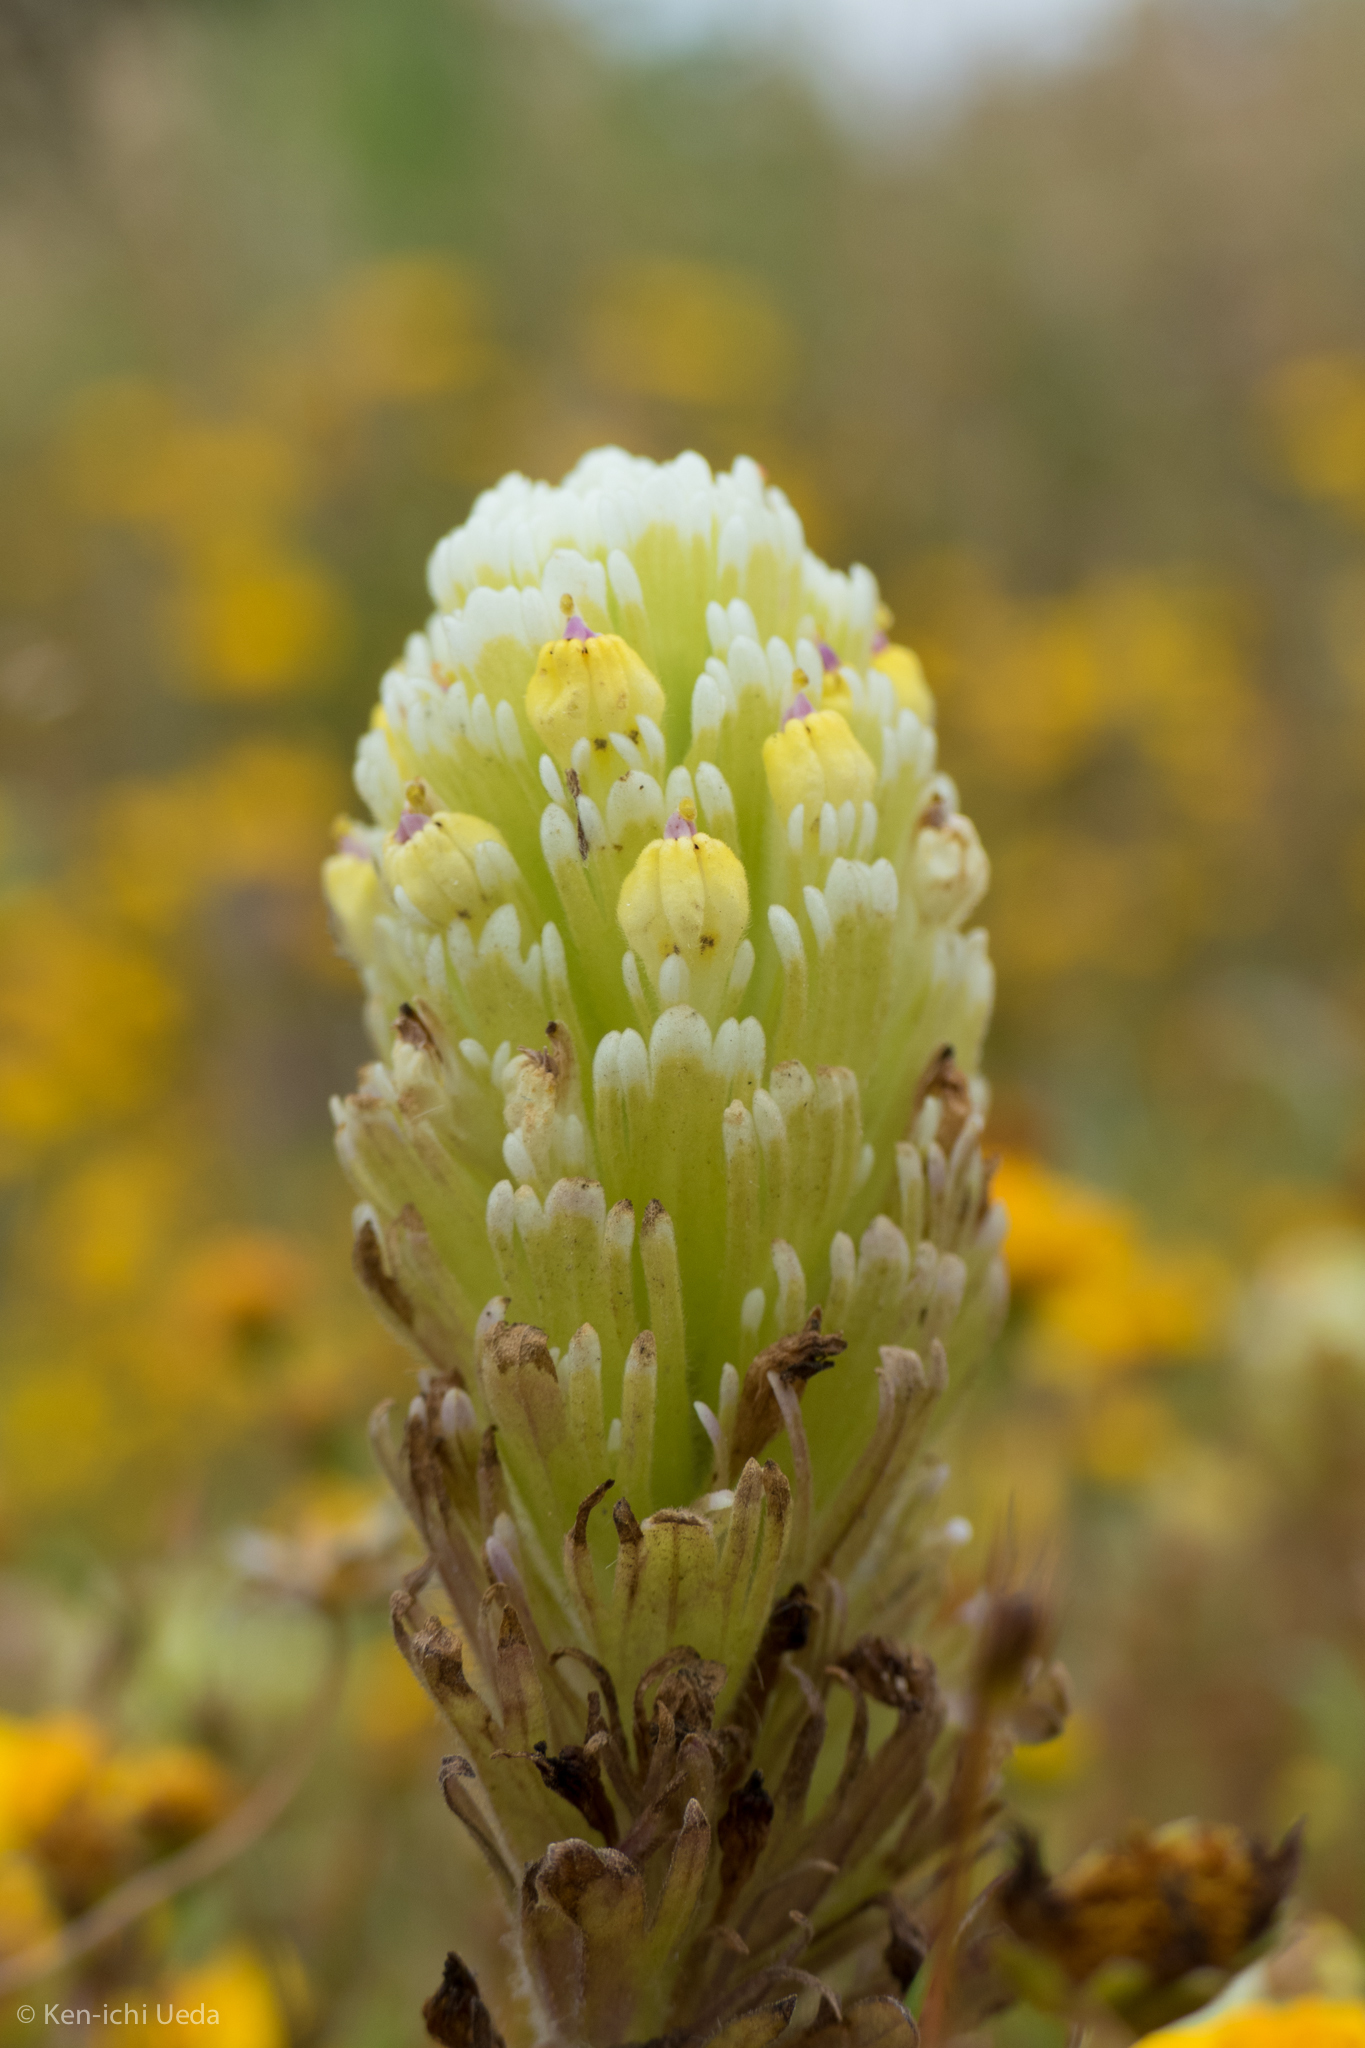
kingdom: Plantae
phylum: Tracheophyta
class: Magnoliopsida
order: Lamiales
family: Orobanchaceae
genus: Castilleja
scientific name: Castilleja ambigua
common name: Johnny-nip
